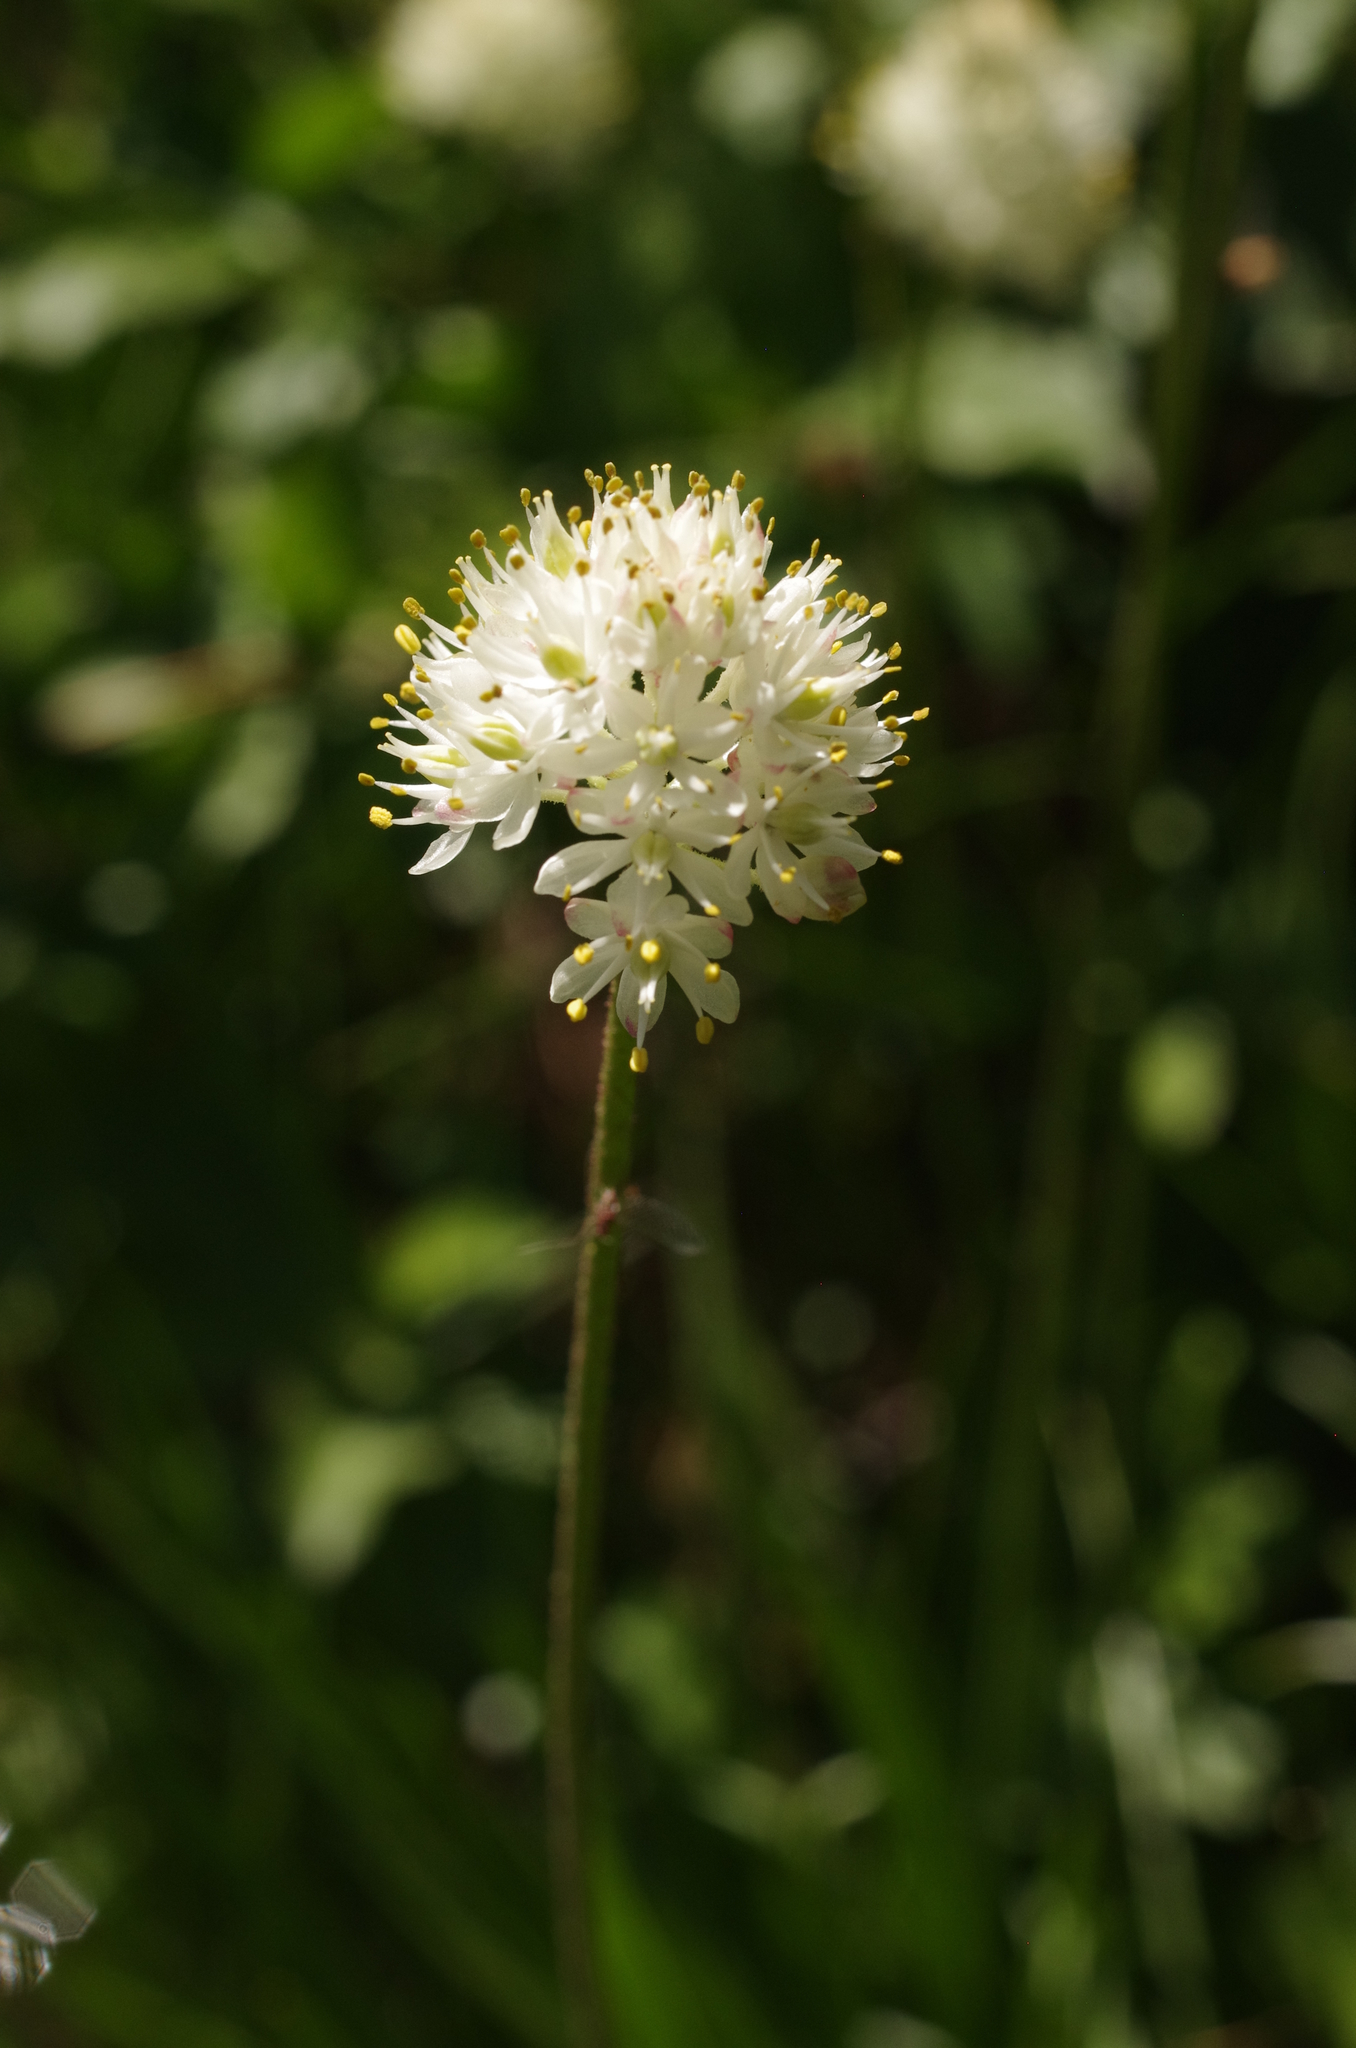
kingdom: Plantae
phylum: Tracheophyta
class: Liliopsida
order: Alismatales
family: Tofieldiaceae
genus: Triantha
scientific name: Triantha occidentalis
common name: Western false asphodel
